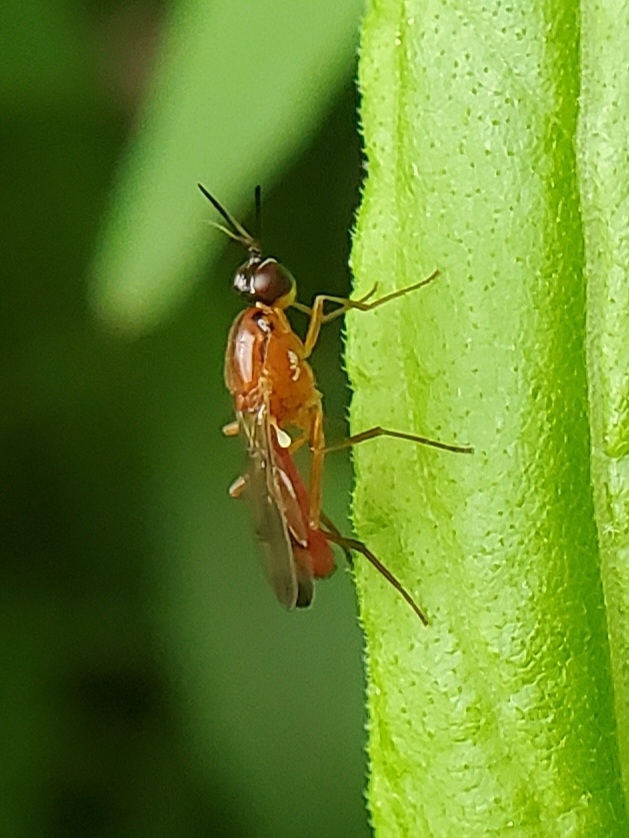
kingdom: Animalia
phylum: Arthropoda
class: Insecta
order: Diptera
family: Psilidae
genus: Loxocera
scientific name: Loxocera cylindrica
